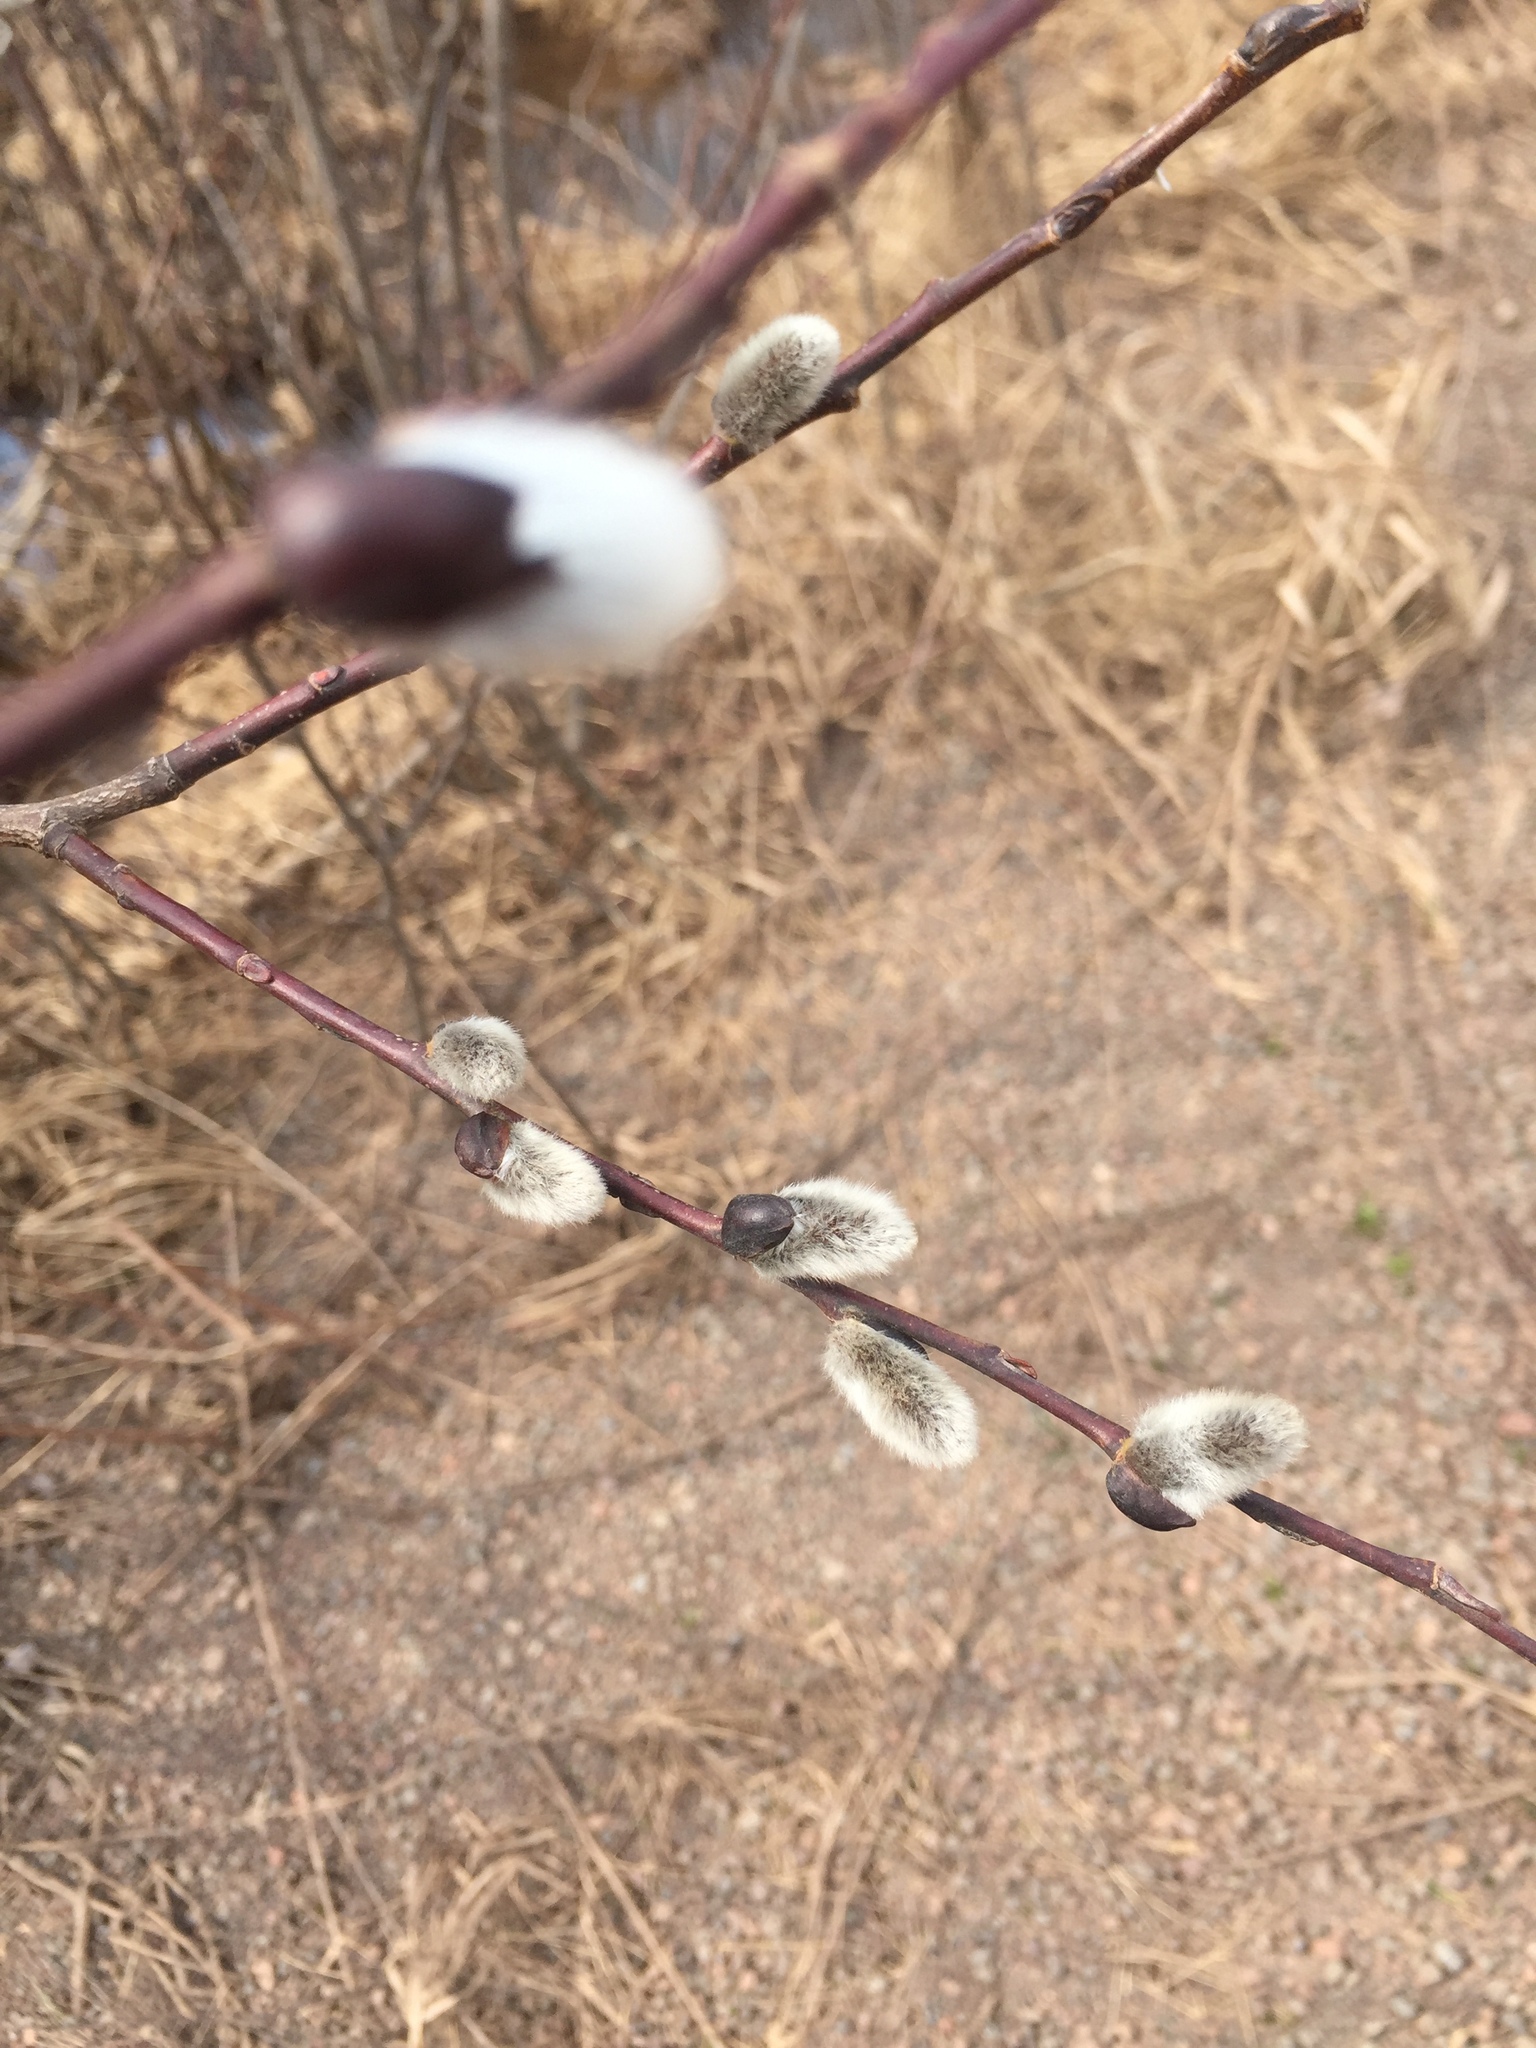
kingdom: Plantae
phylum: Tracheophyta
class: Magnoliopsida
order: Malpighiales
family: Salicaceae
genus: Salix
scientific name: Salix discolor
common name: Glaucous willow
